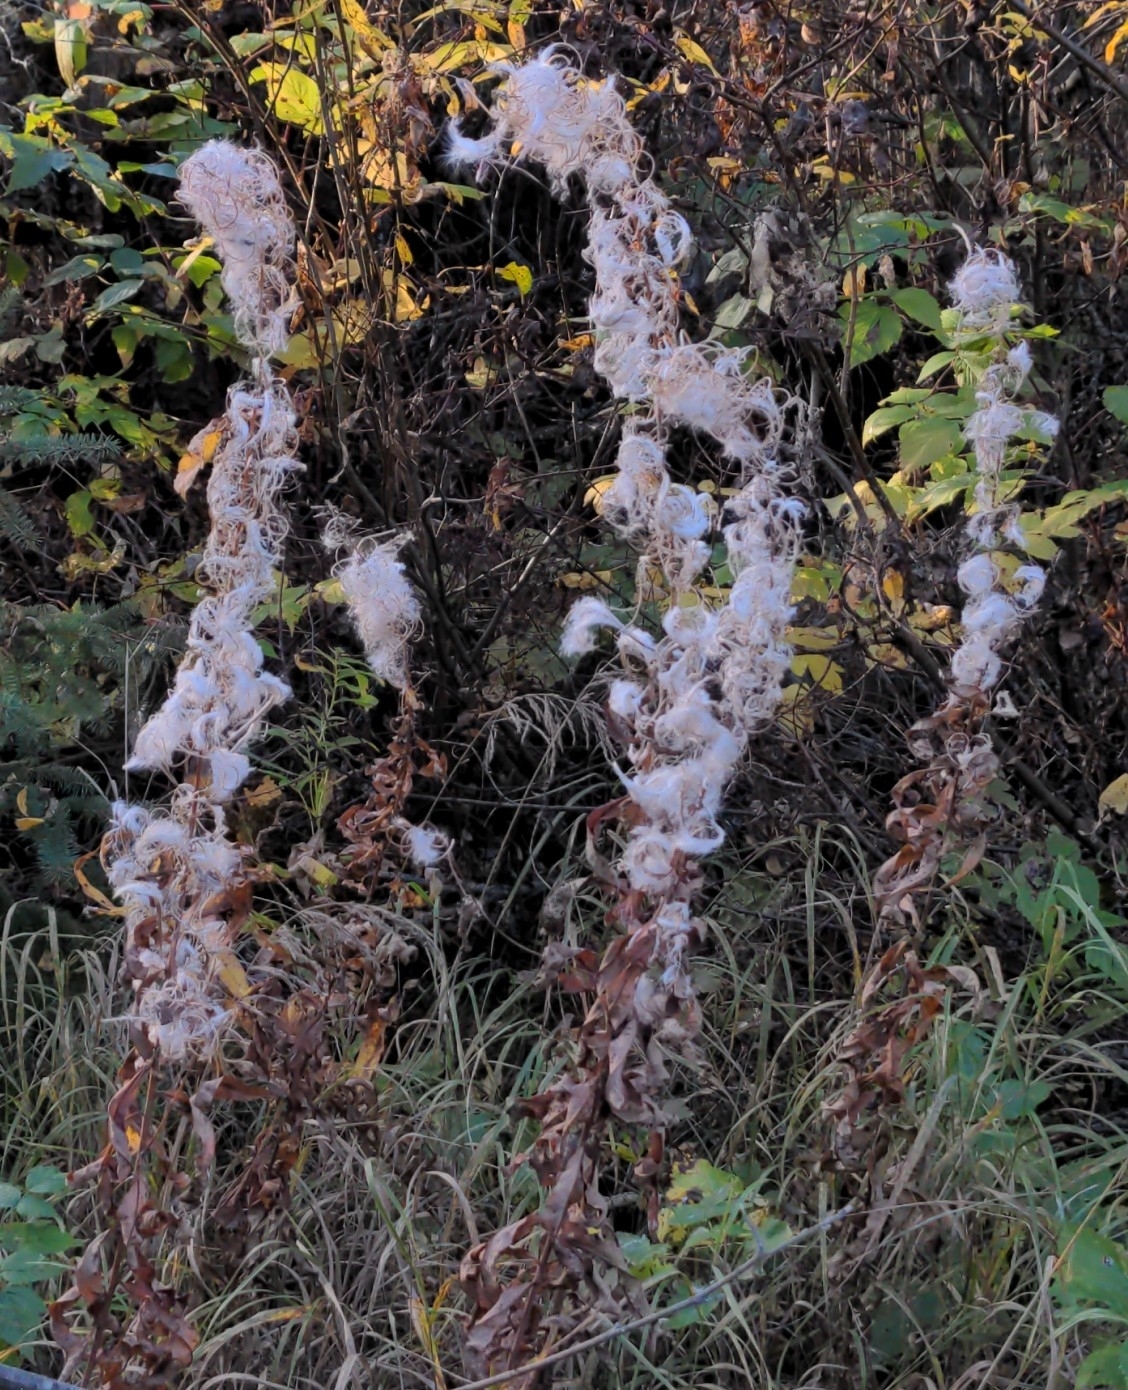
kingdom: Plantae
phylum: Tracheophyta
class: Magnoliopsida
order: Myrtales
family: Onagraceae
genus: Chamaenerion
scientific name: Chamaenerion angustifolium
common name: Fireweed
